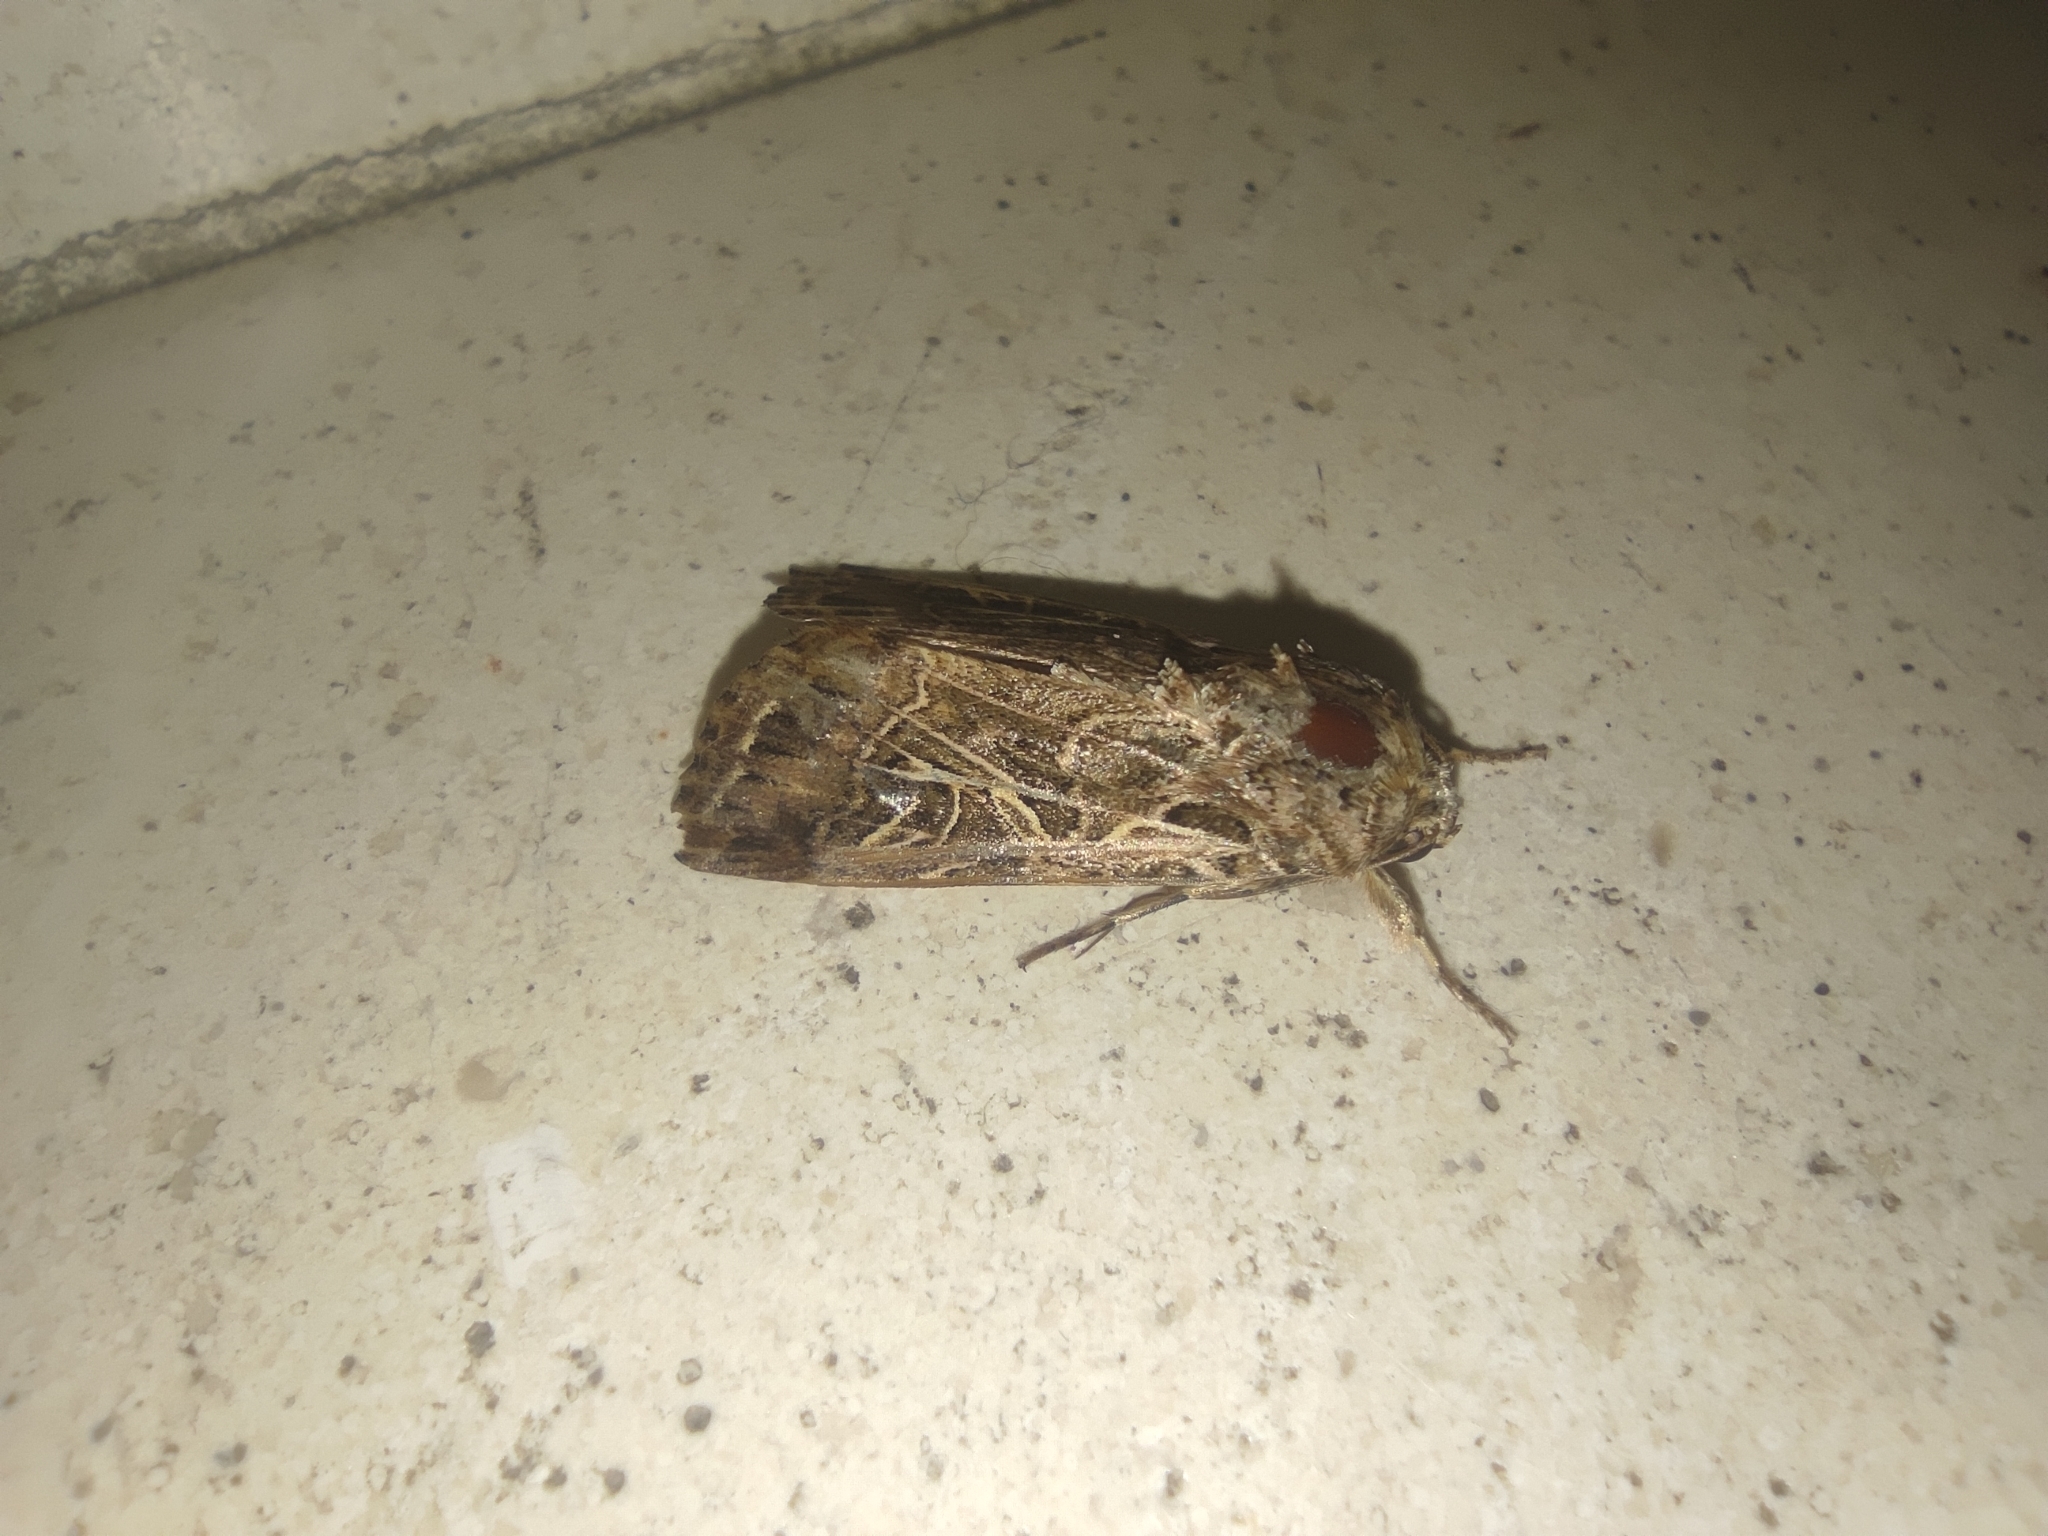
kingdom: Animalia
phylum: Arthropoda
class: Insecta
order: Lepidoptera
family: Noctuidae
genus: Spodoptera
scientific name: Spodoptera littoralis
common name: Egyptian cotton leafworm
